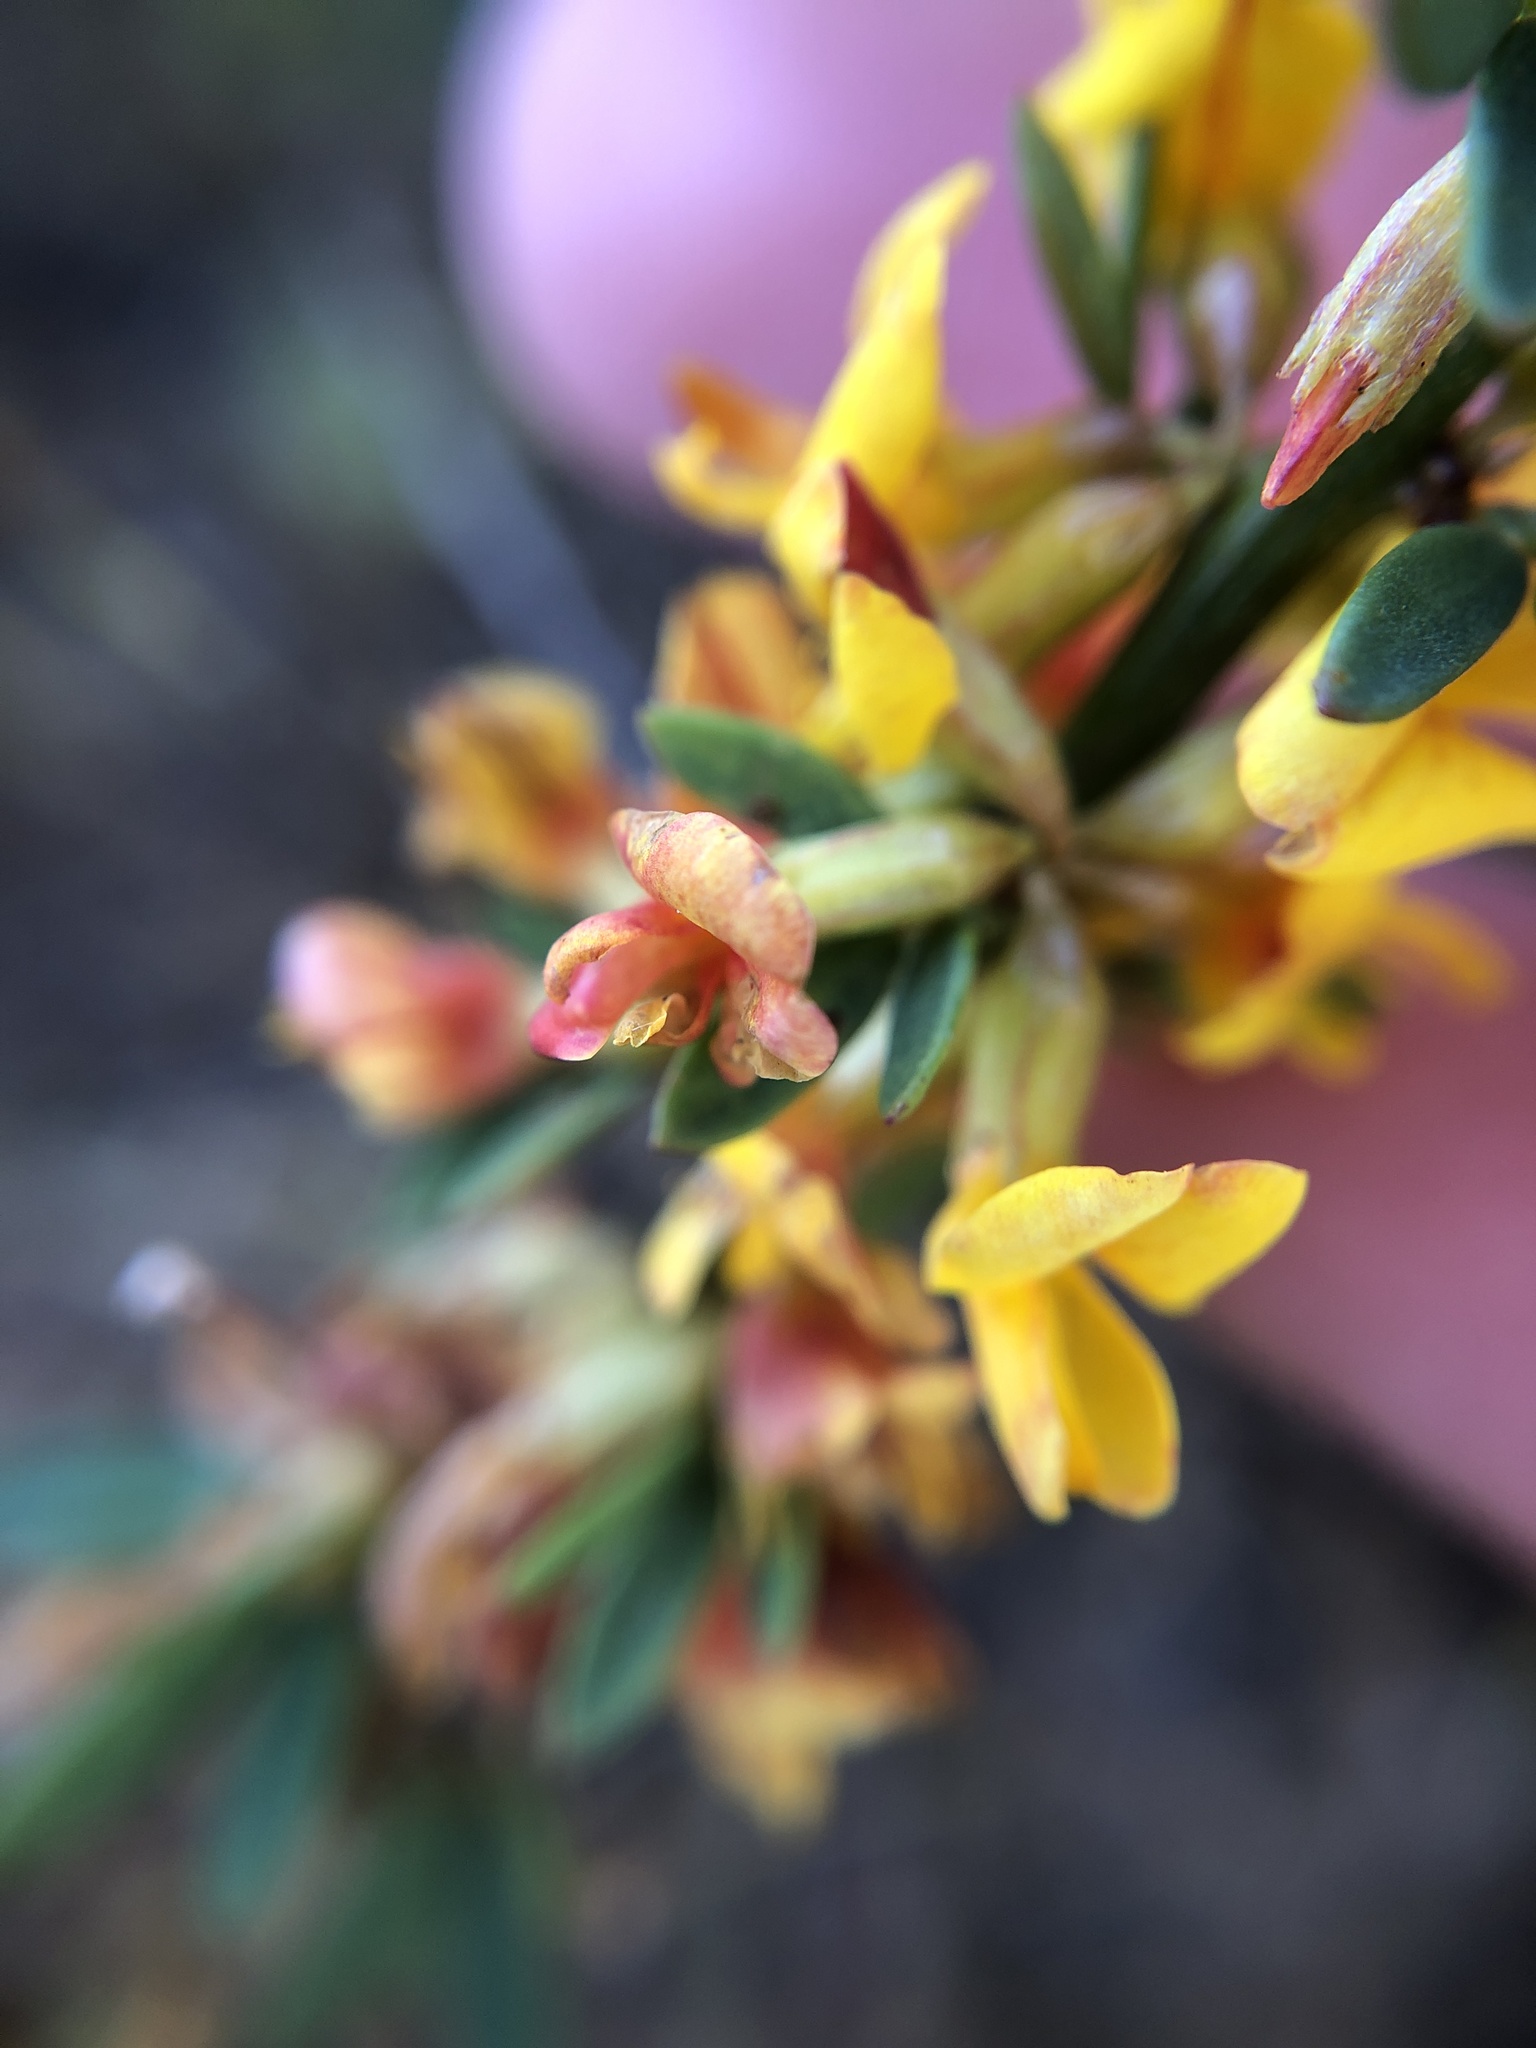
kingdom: Plantae
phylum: Tracheophyta
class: Magnoliopsida
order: Fabales
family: Fabaceae
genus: Acmispon
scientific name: Acmispon glaber
